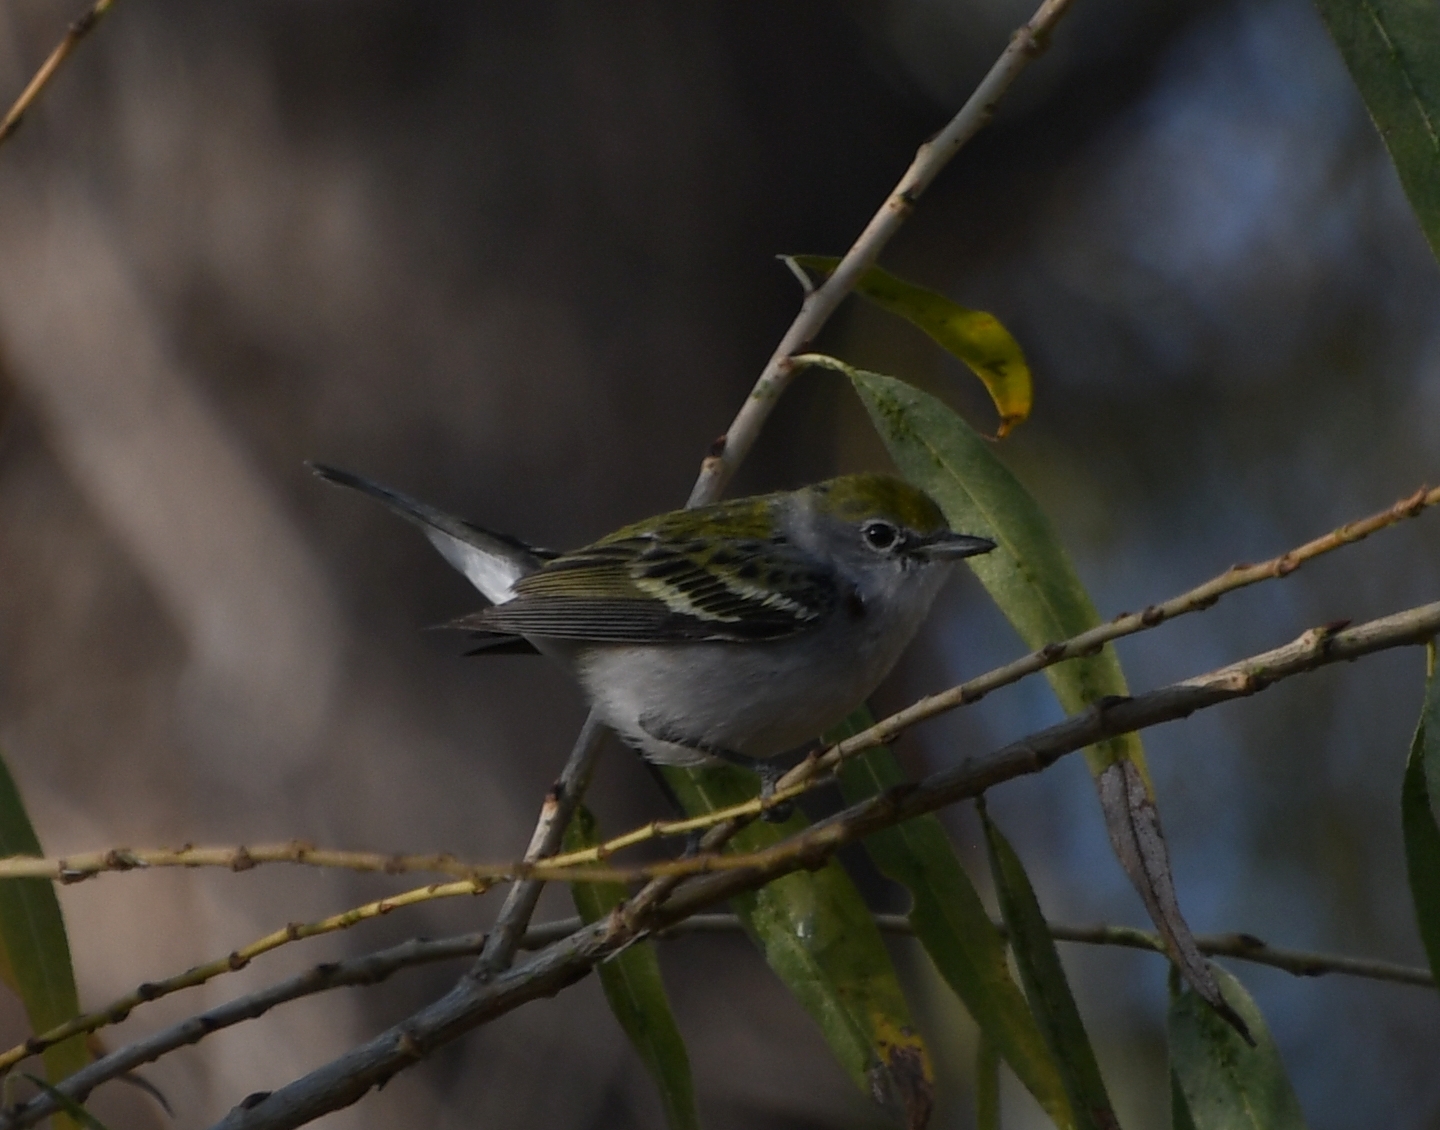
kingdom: Animalia
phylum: Chordata
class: Aves
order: Passeriformes
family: Parulidae
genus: Setophaga
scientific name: Setophaga pensylvanica
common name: Chestnut-sided warbler
